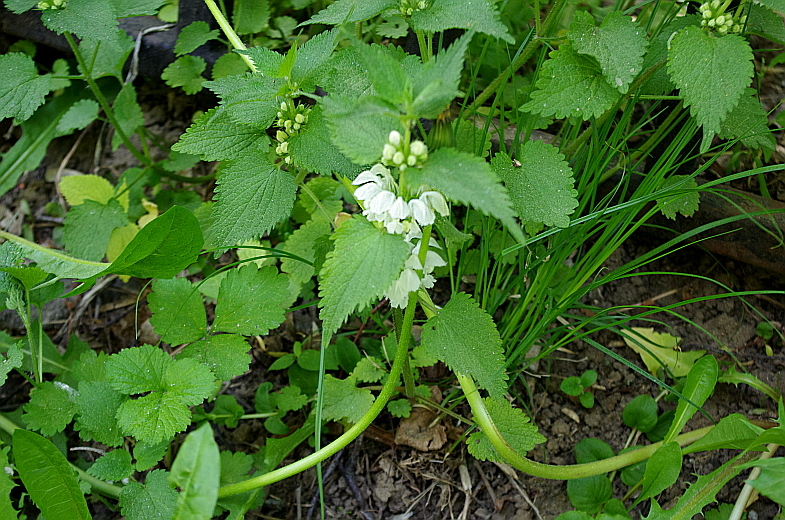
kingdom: Plantae
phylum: Tracheophyta
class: Magnoliopsida
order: Lamiales
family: Lamiaceae
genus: Lamium
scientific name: Lamium album
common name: White dead-nettle
